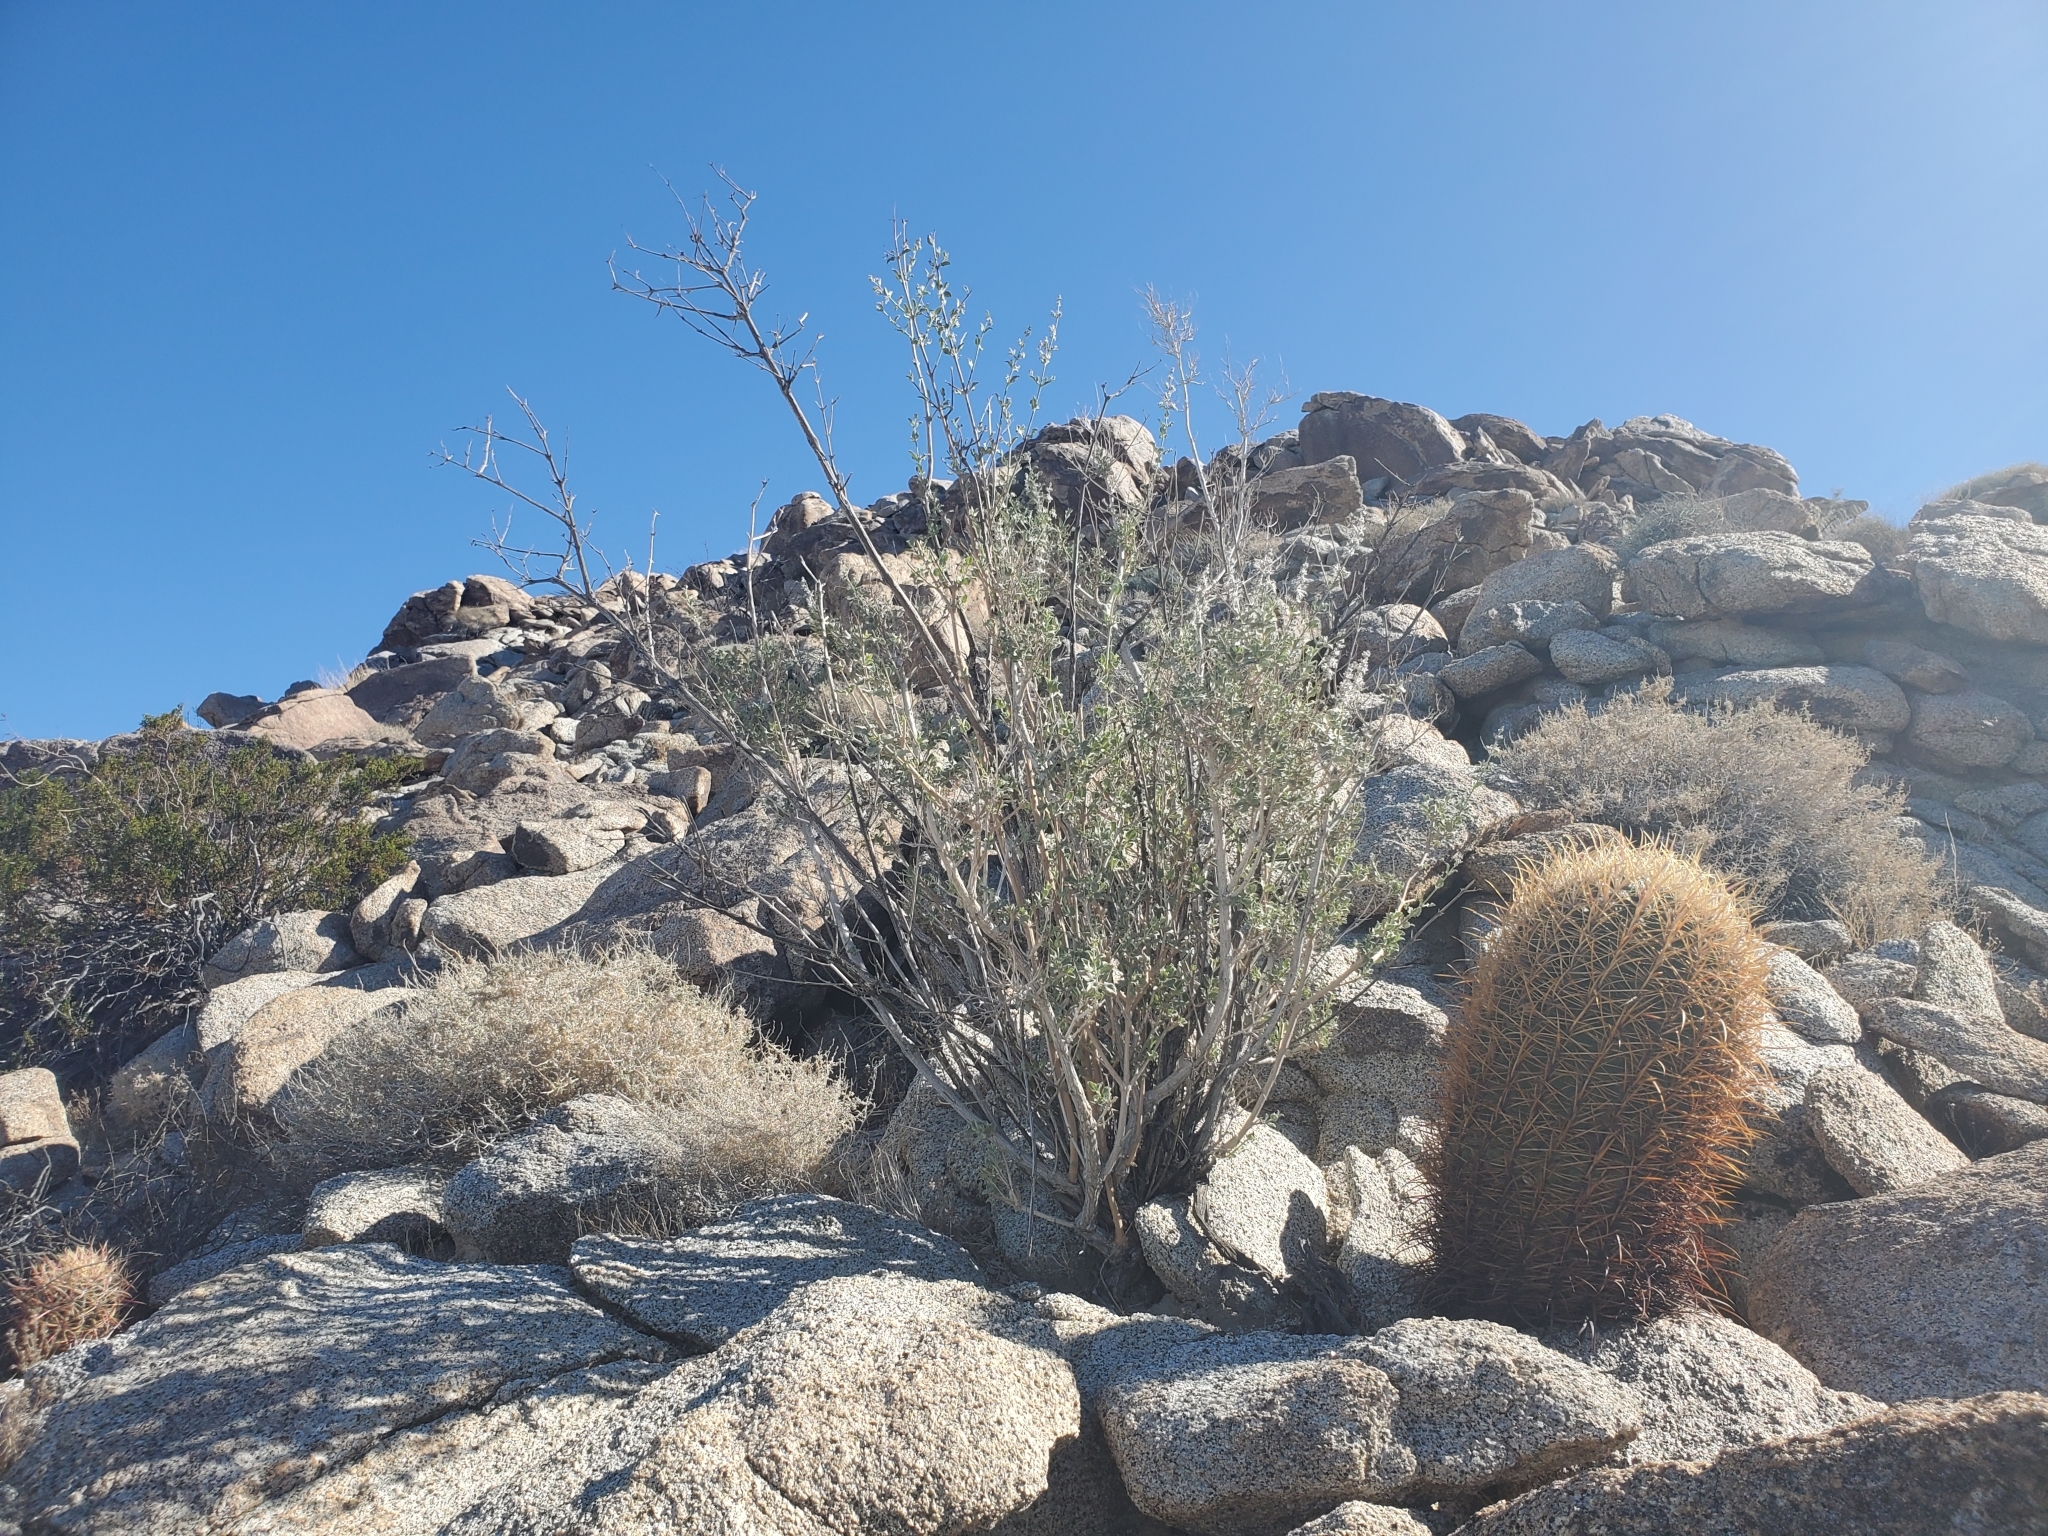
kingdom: Plantae
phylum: Tracheophyta
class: Magnoliopsida
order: Lamiales
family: Lamiaceae
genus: Condea
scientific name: Condea emoryi
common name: Chia
